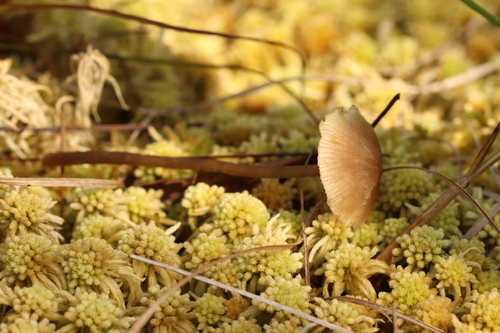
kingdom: Fungi
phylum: Basidiomycota
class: Agaricomycetes
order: Agaricales
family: Lyophyllaceae
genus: Sphagnurus
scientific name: Sphagnurus paluster
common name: Sphagnum greyling
